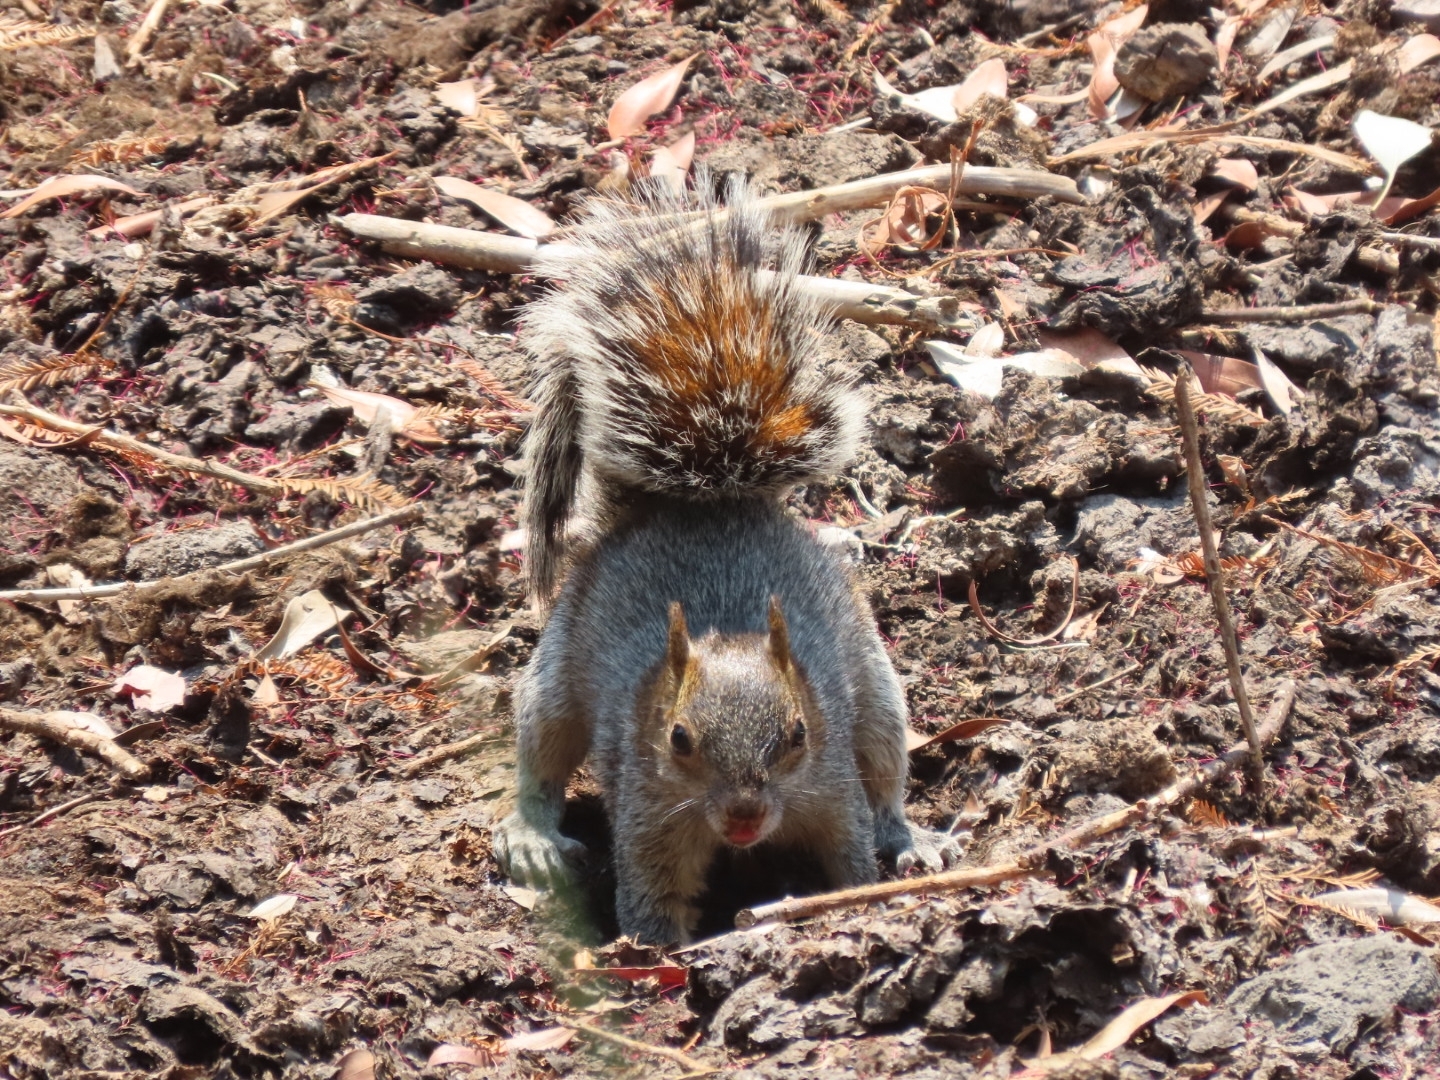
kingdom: Animalia
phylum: Chordata
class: Mammalia
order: Rodentia
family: Sciuridae
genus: Sciurus
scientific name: Sciurus aureogaster
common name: Red-bellied squirrel
